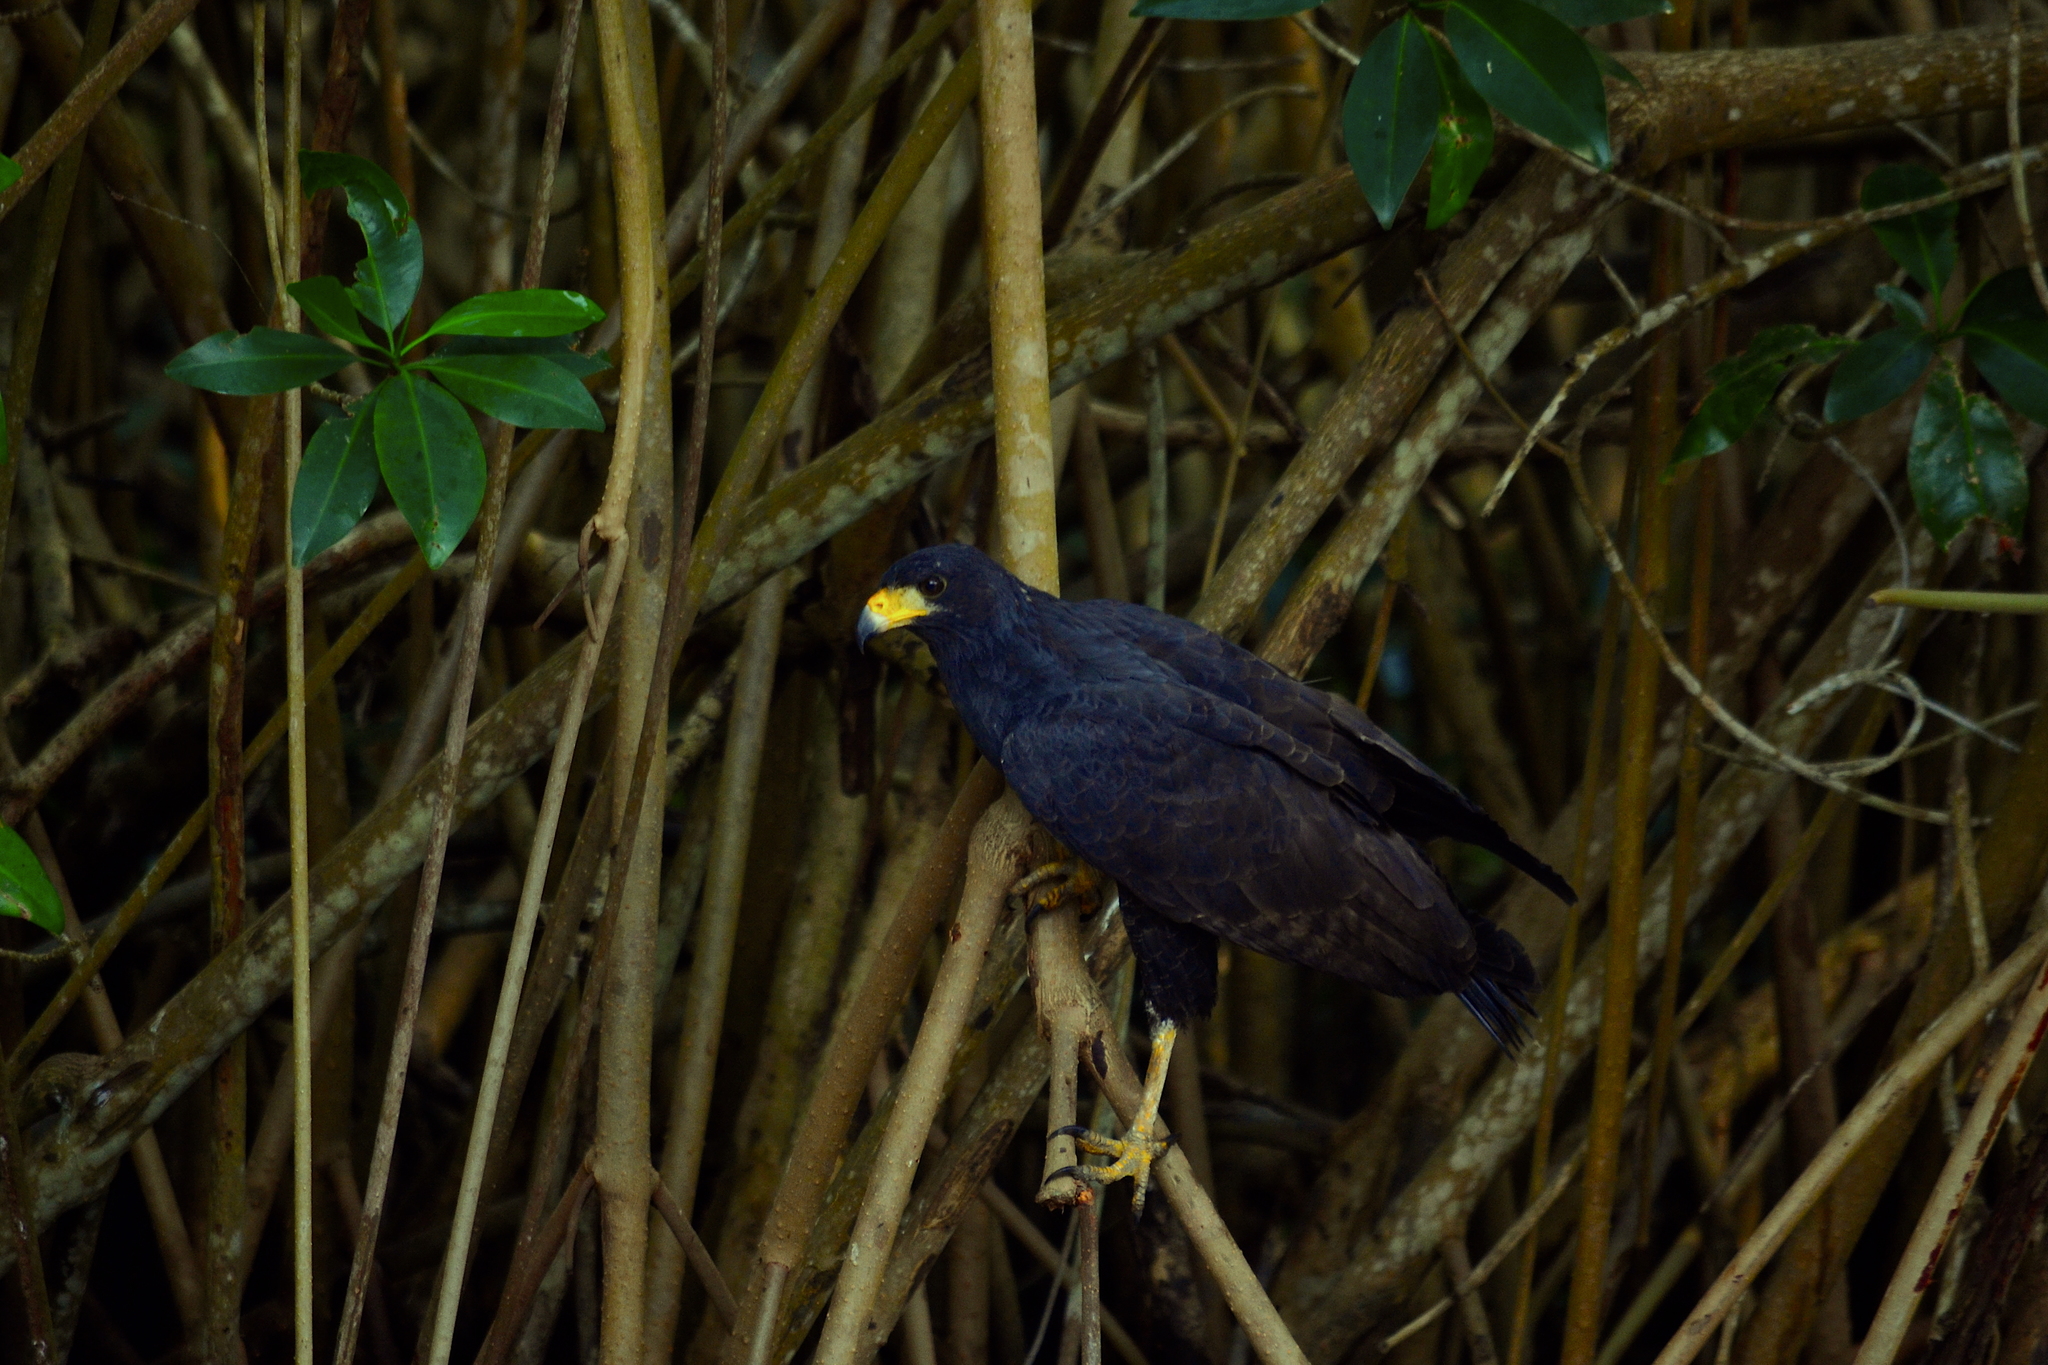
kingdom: Animalia
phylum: Chordata
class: Aves
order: Accipitriformes
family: Accipitridae
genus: Buteogallus
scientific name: Buteogallus anthracinus
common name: Common black hawk
